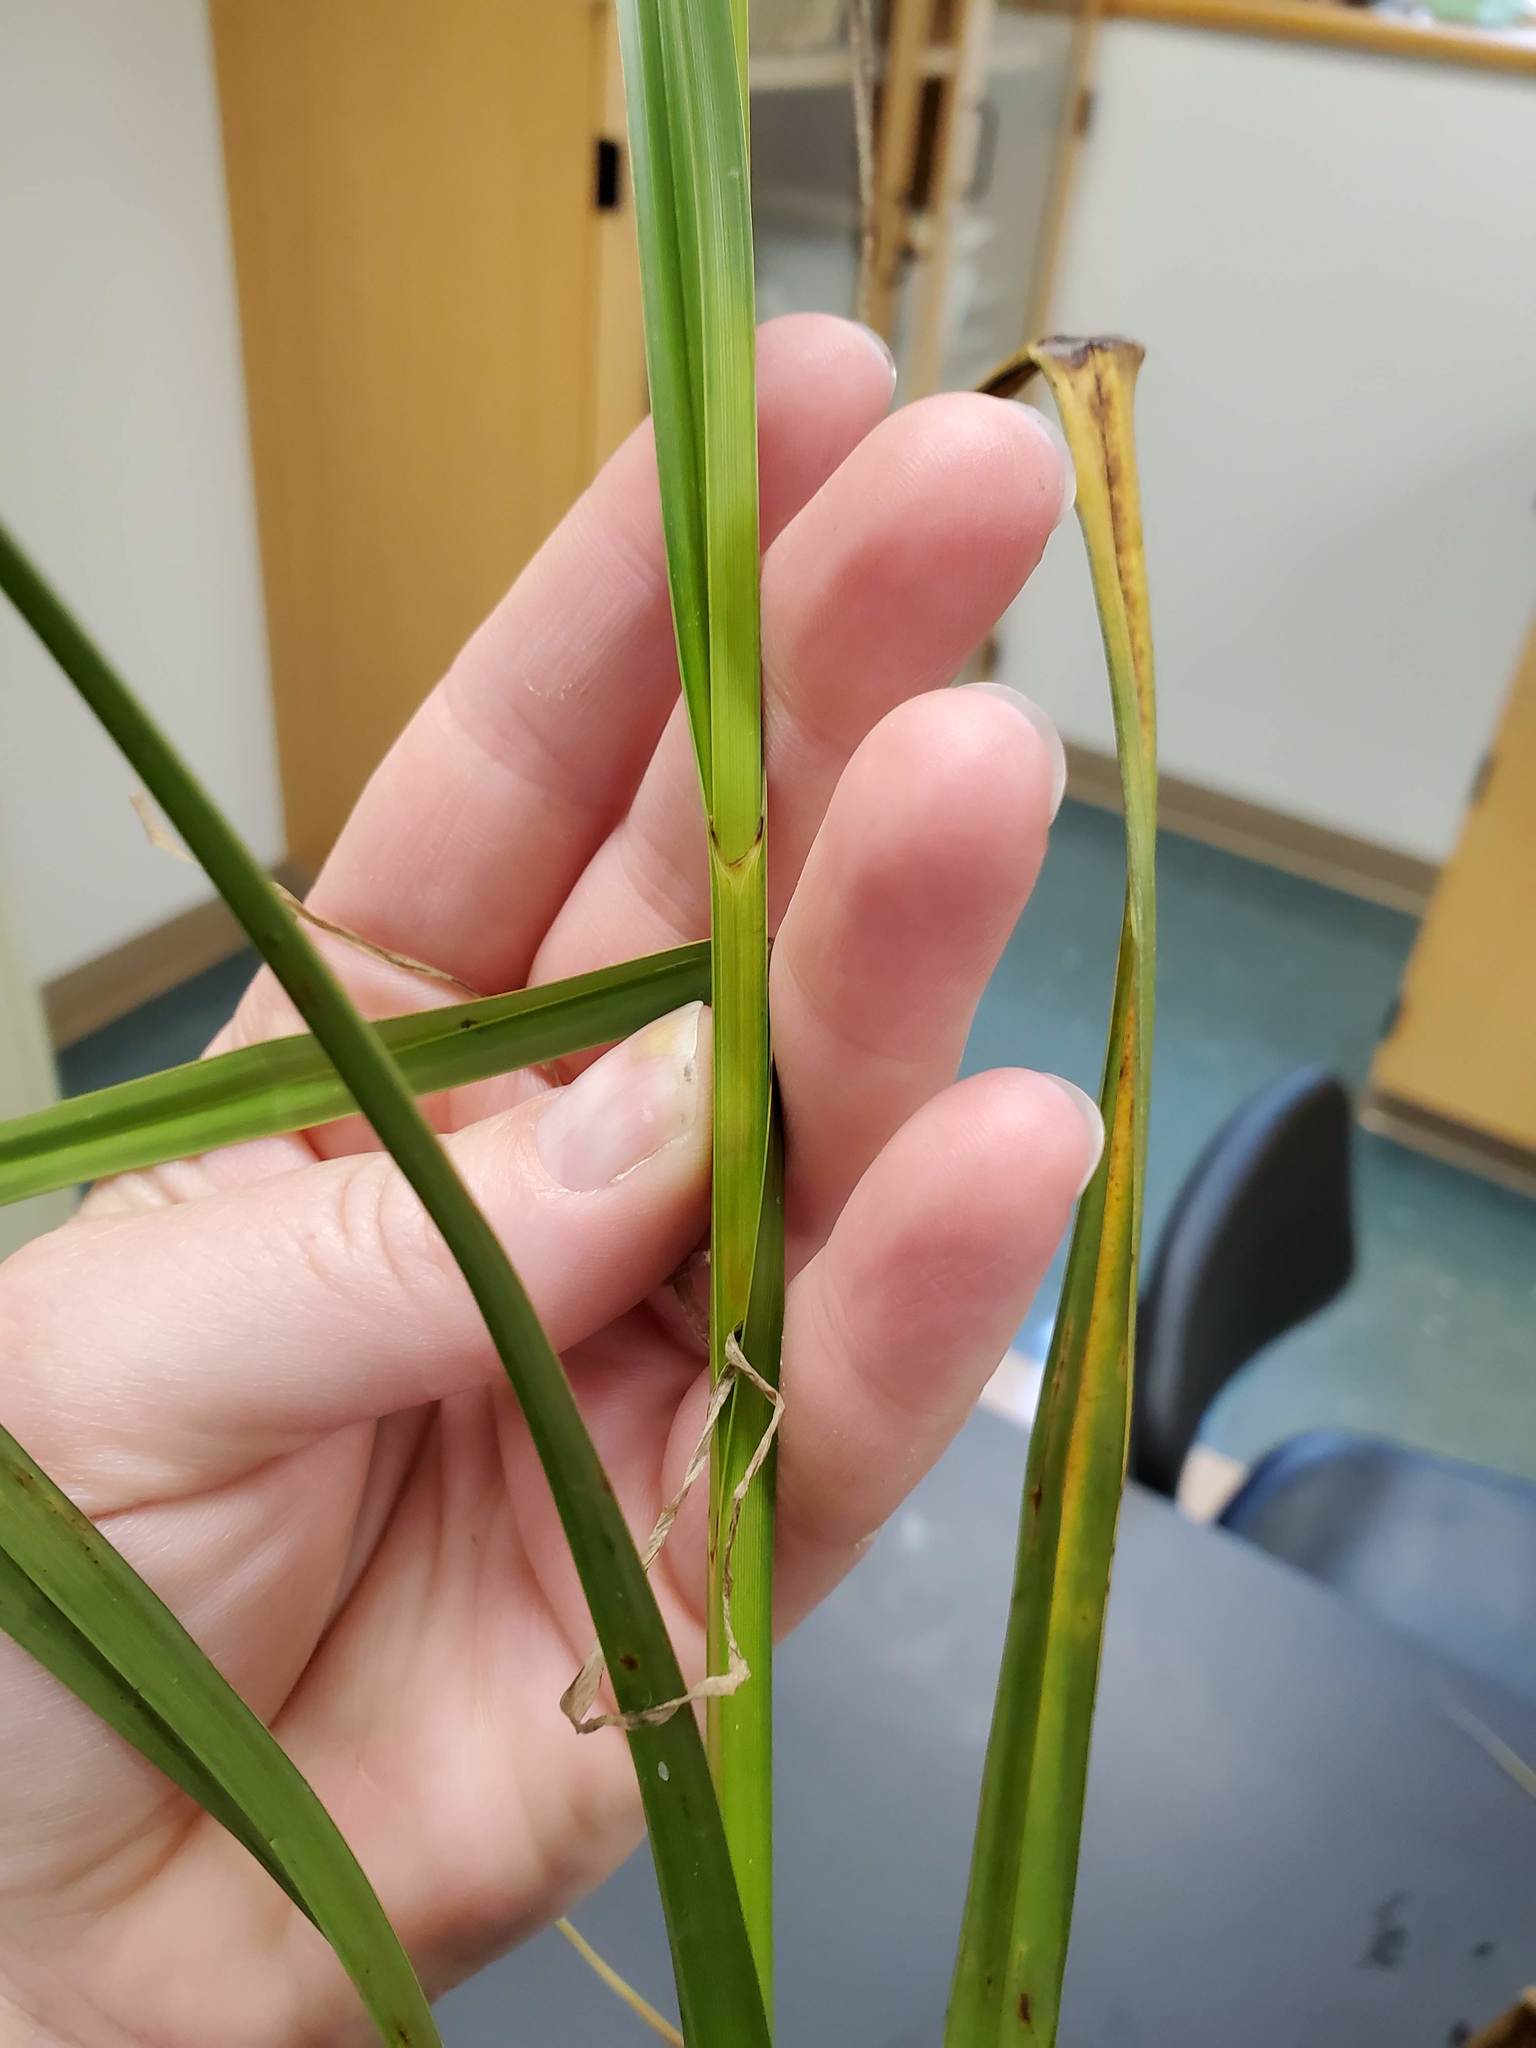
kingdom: Plantae
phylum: Tracheophyta
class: Liliopsida
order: Poales
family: Cyperaceae
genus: Bolboschoenus
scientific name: Bolboschoenus fluviatilis
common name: River bulrush
